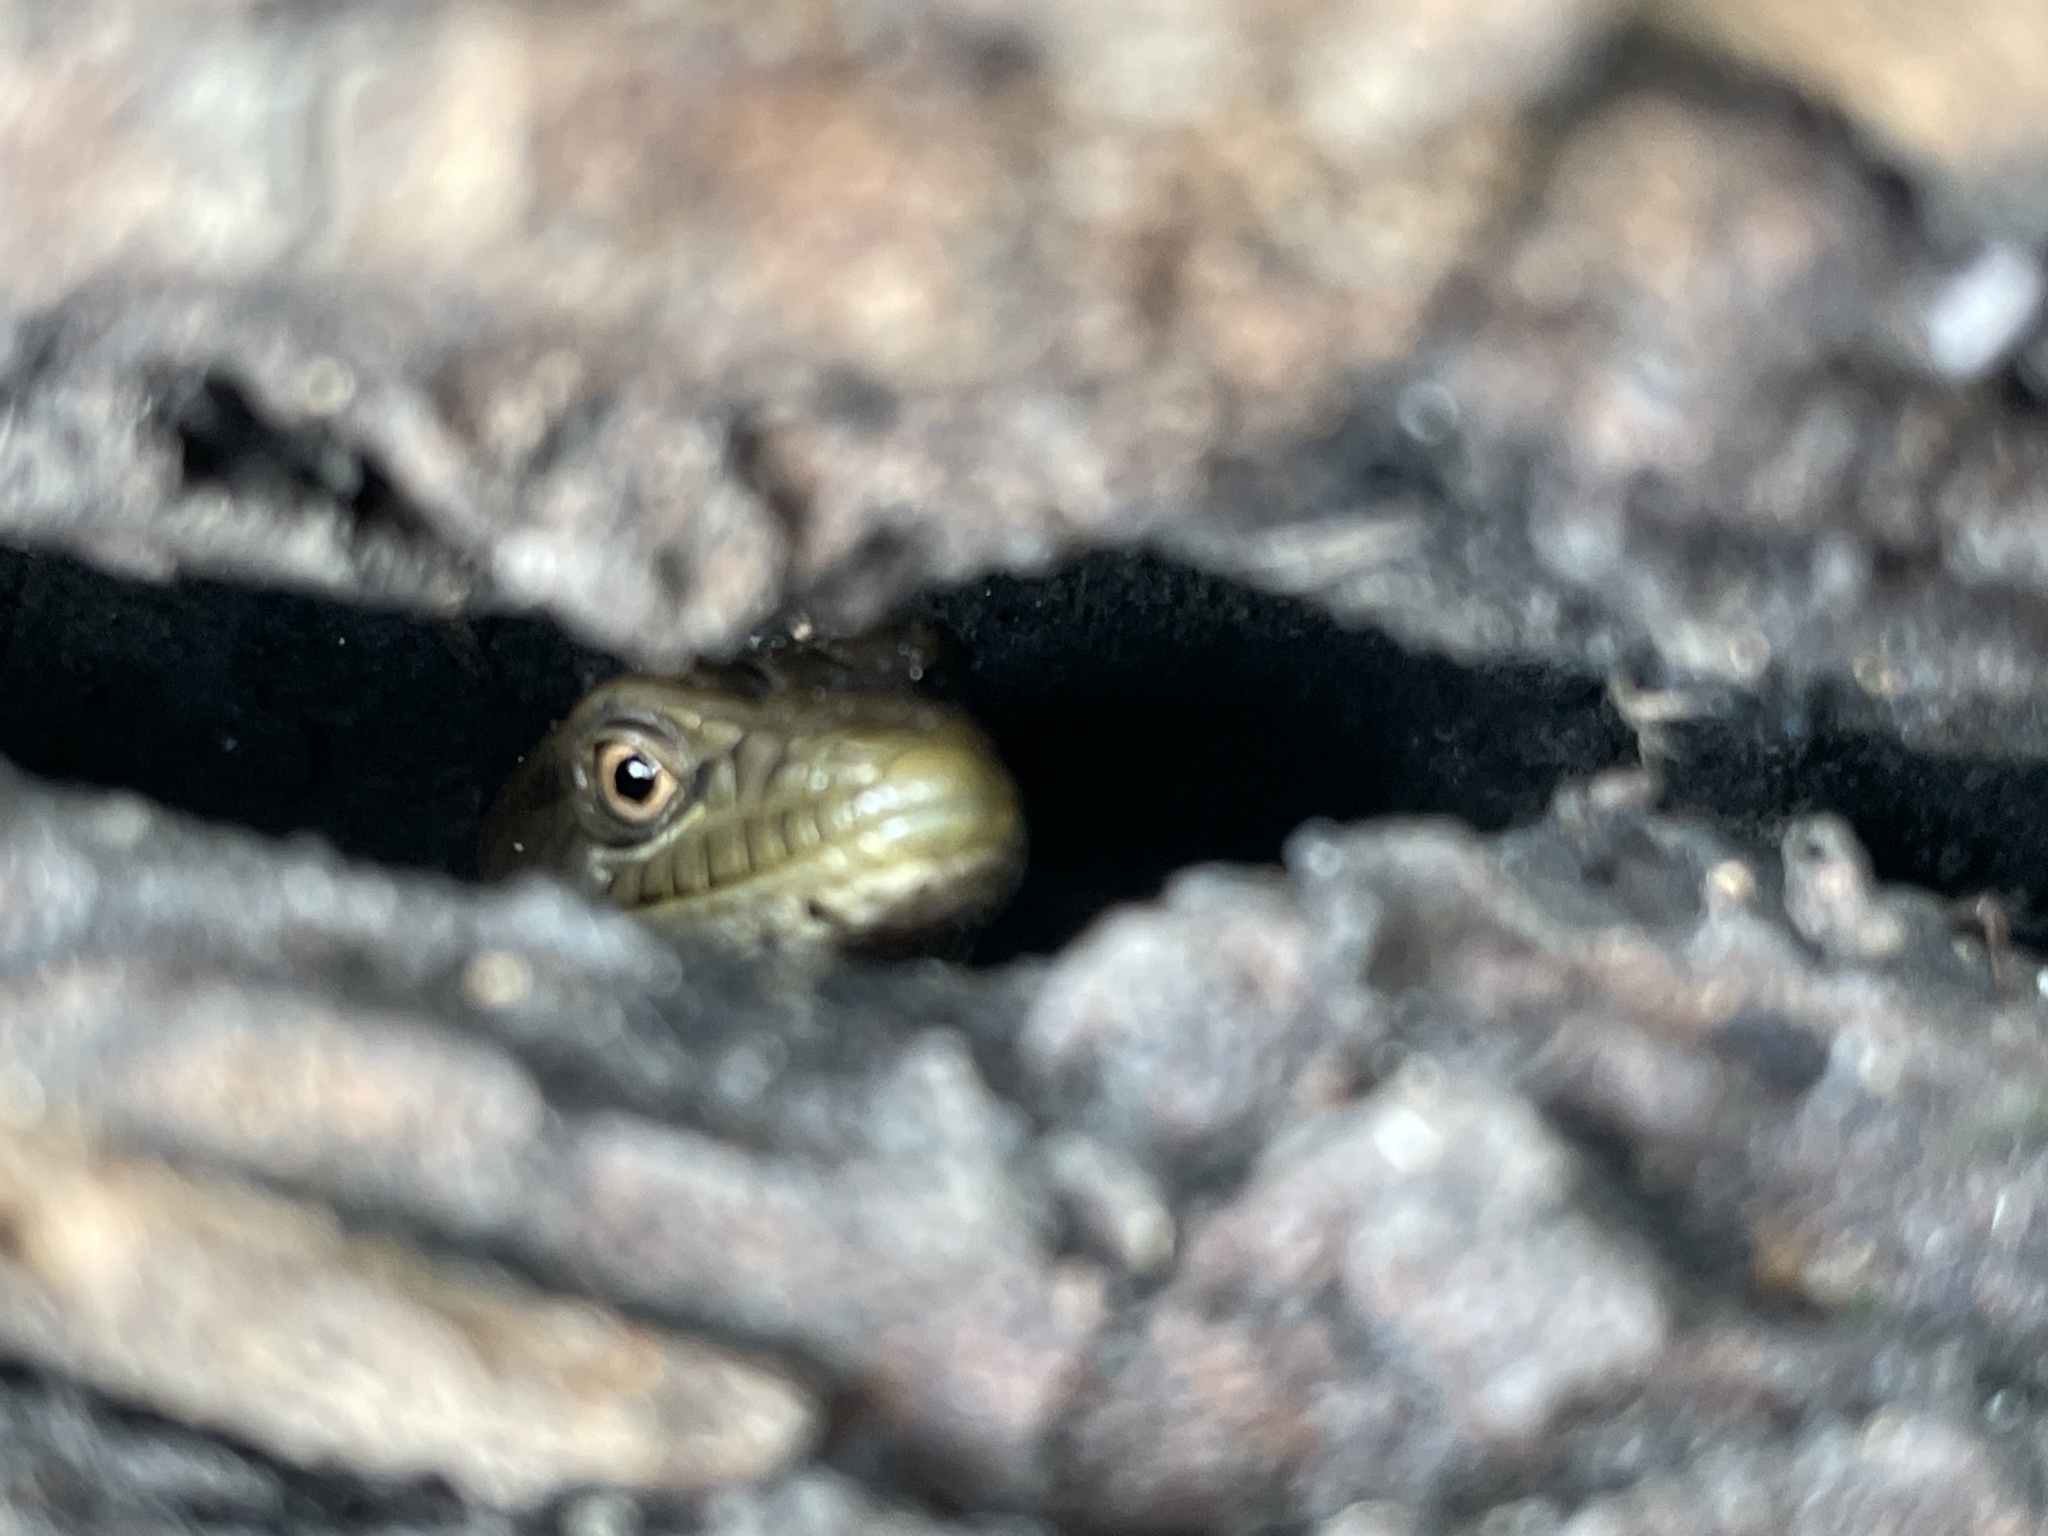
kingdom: Animalia
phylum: Chordata
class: Squamata
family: Anguidae
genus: Elgaria
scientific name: Elgaria multicarinata
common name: Southern alligator lizard
